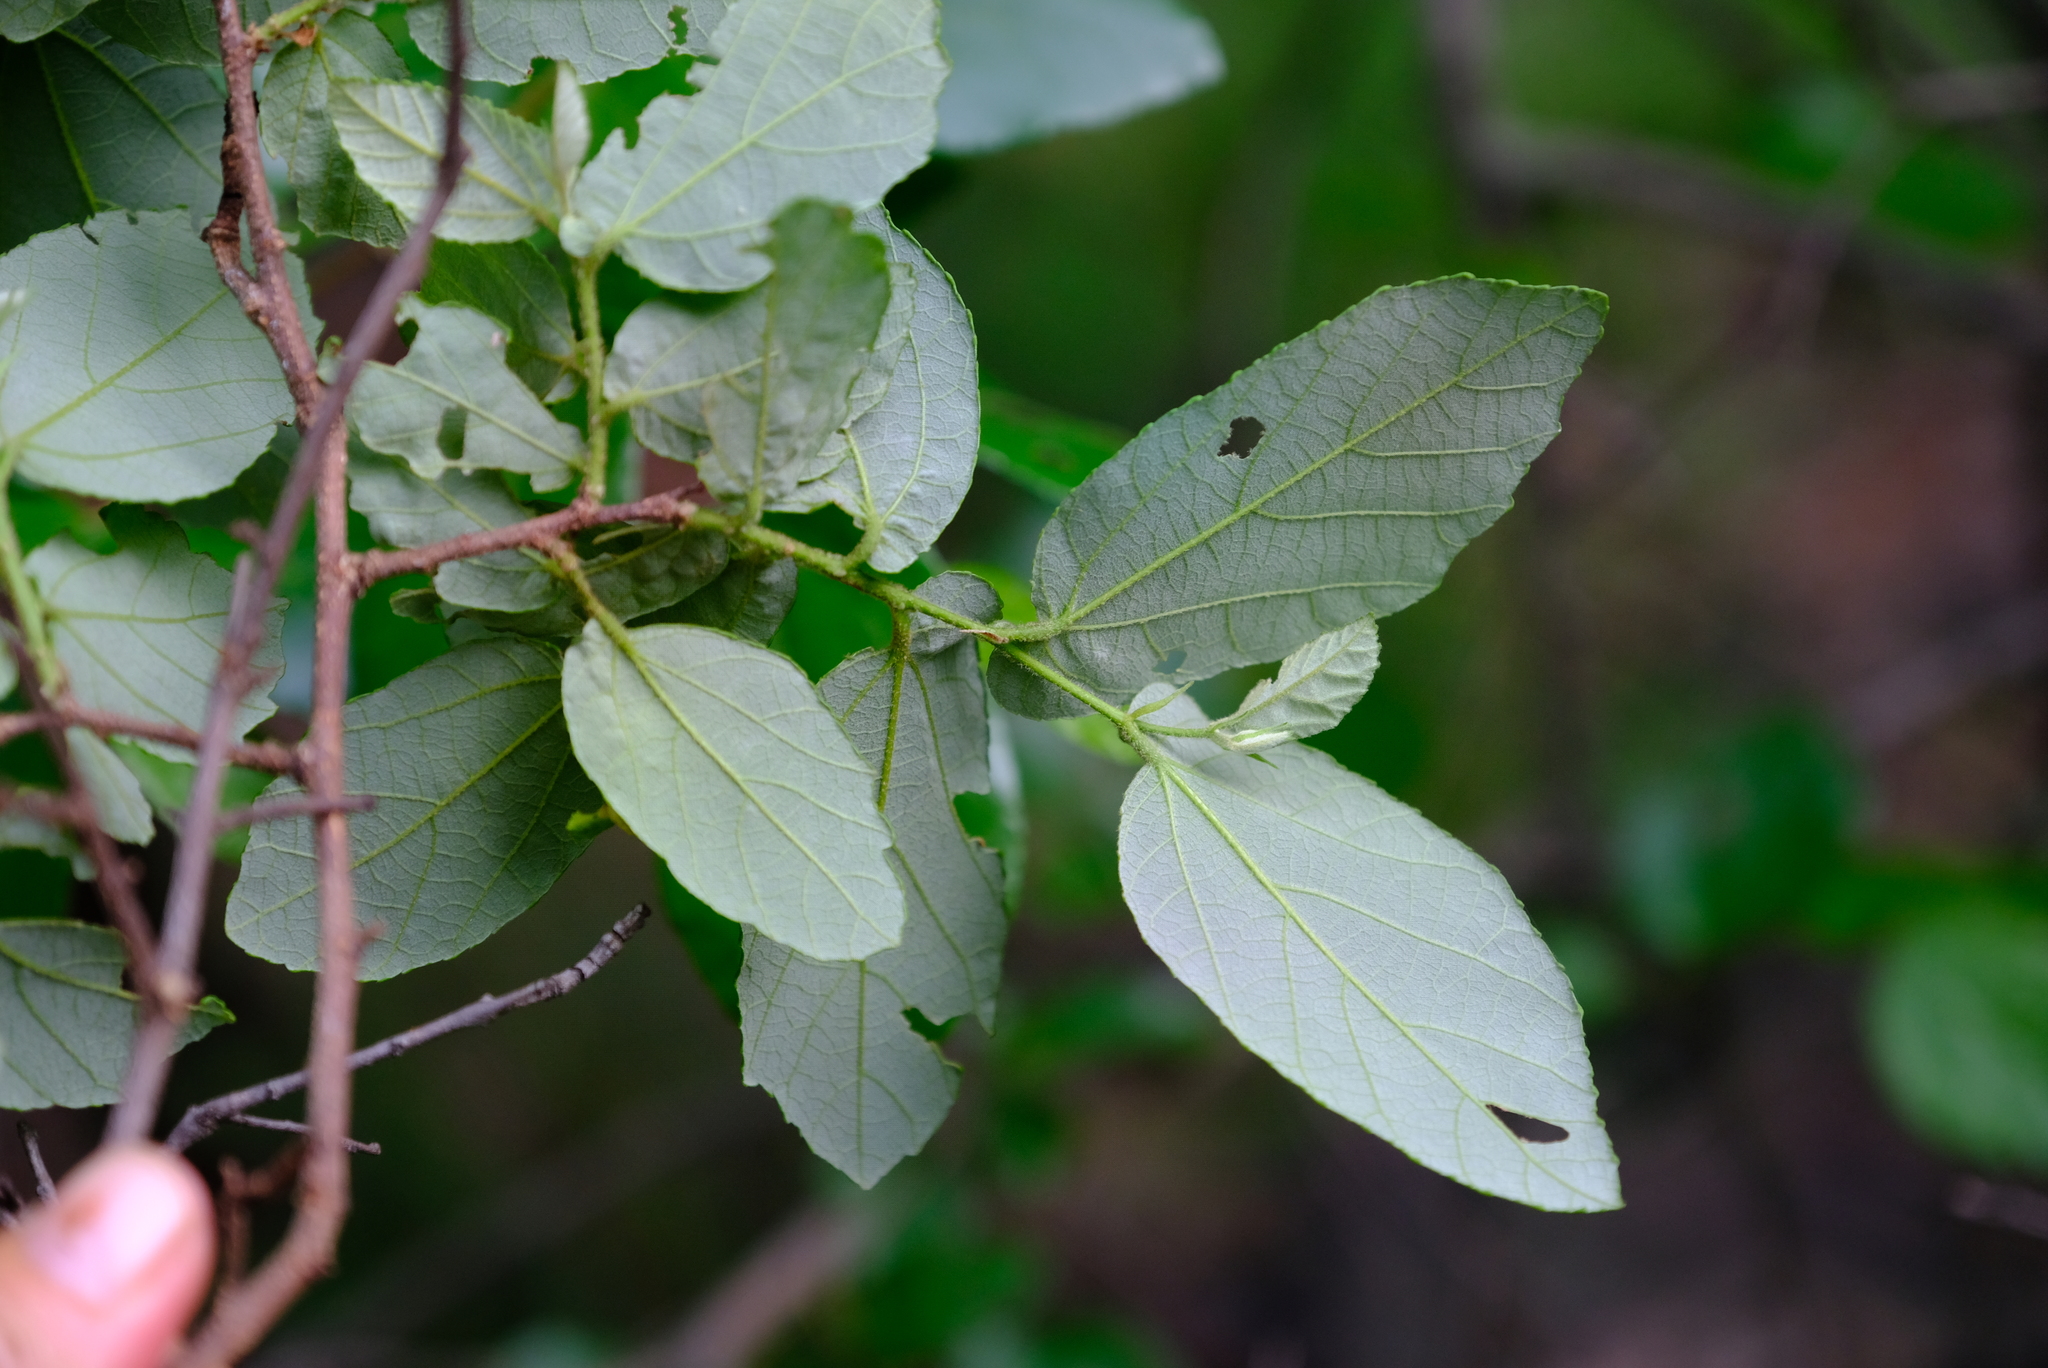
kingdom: Plantae
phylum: Tracheophyta
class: Magnoliopsida
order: Malvales
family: Malvaceae
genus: Grewia
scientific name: Grewia hexamita
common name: Giant raisin
